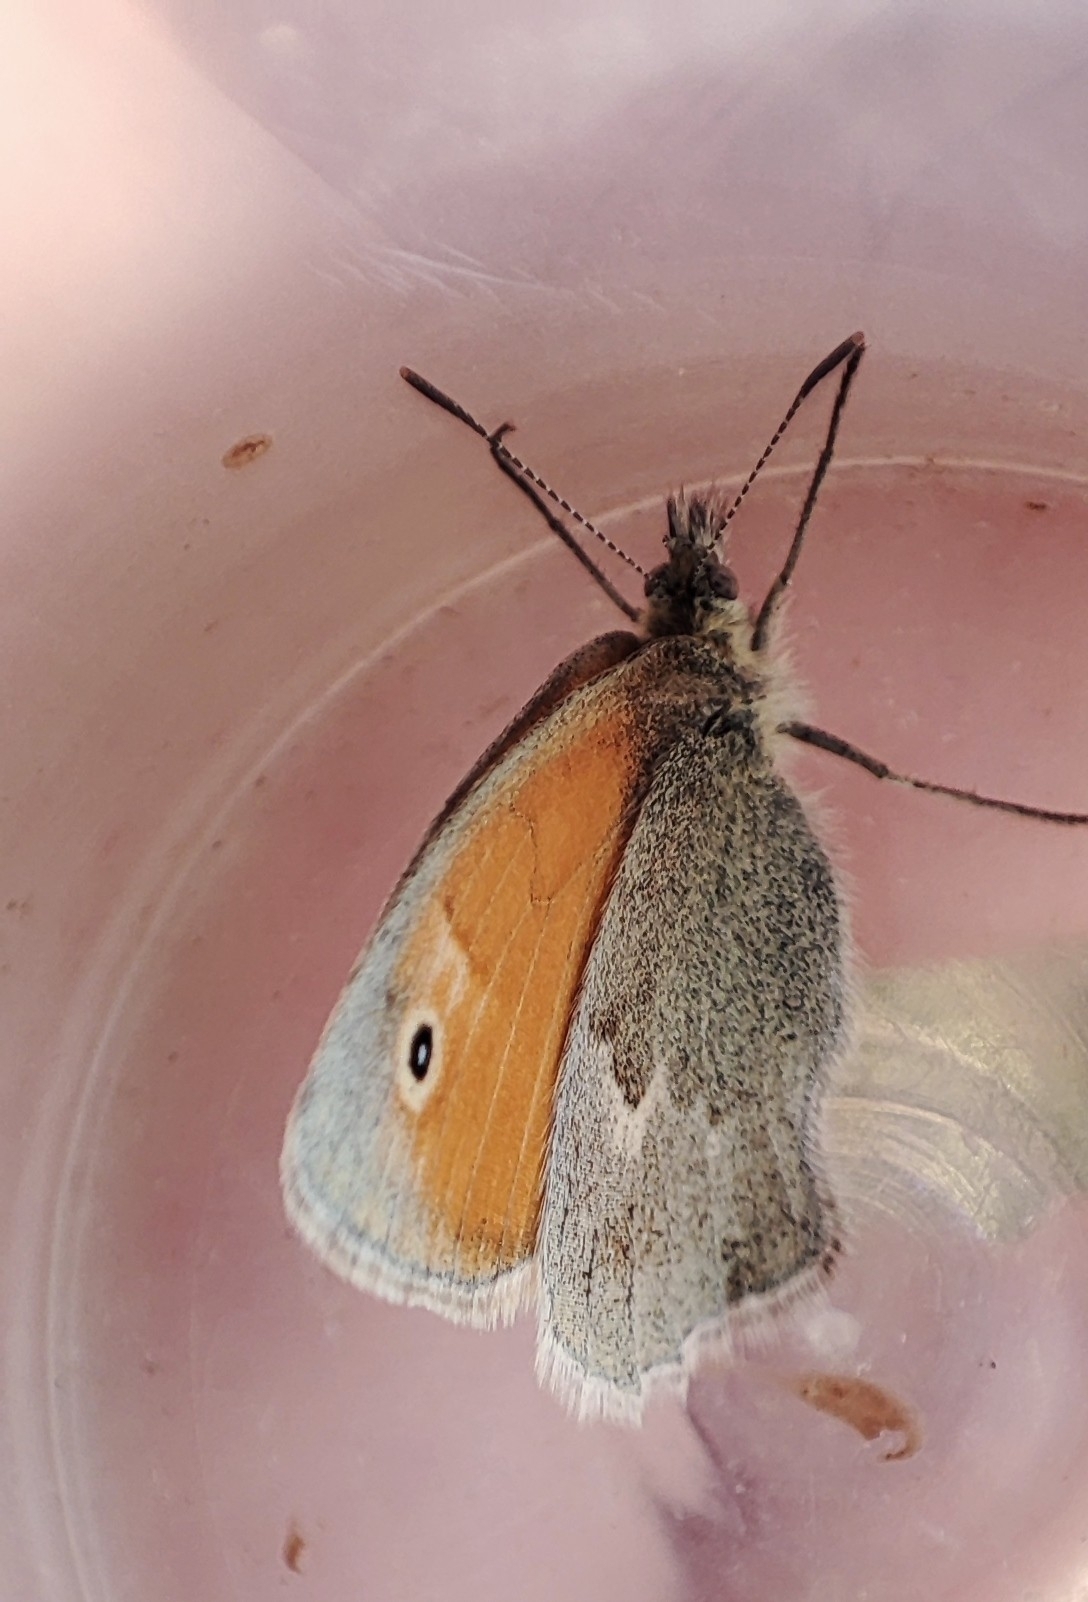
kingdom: Animalia
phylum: Arthropoda
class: Insecta
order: Lepidoptera
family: Nymphalidae
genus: Coenonympha
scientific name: Coenonympha pamphilus
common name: Small heath
